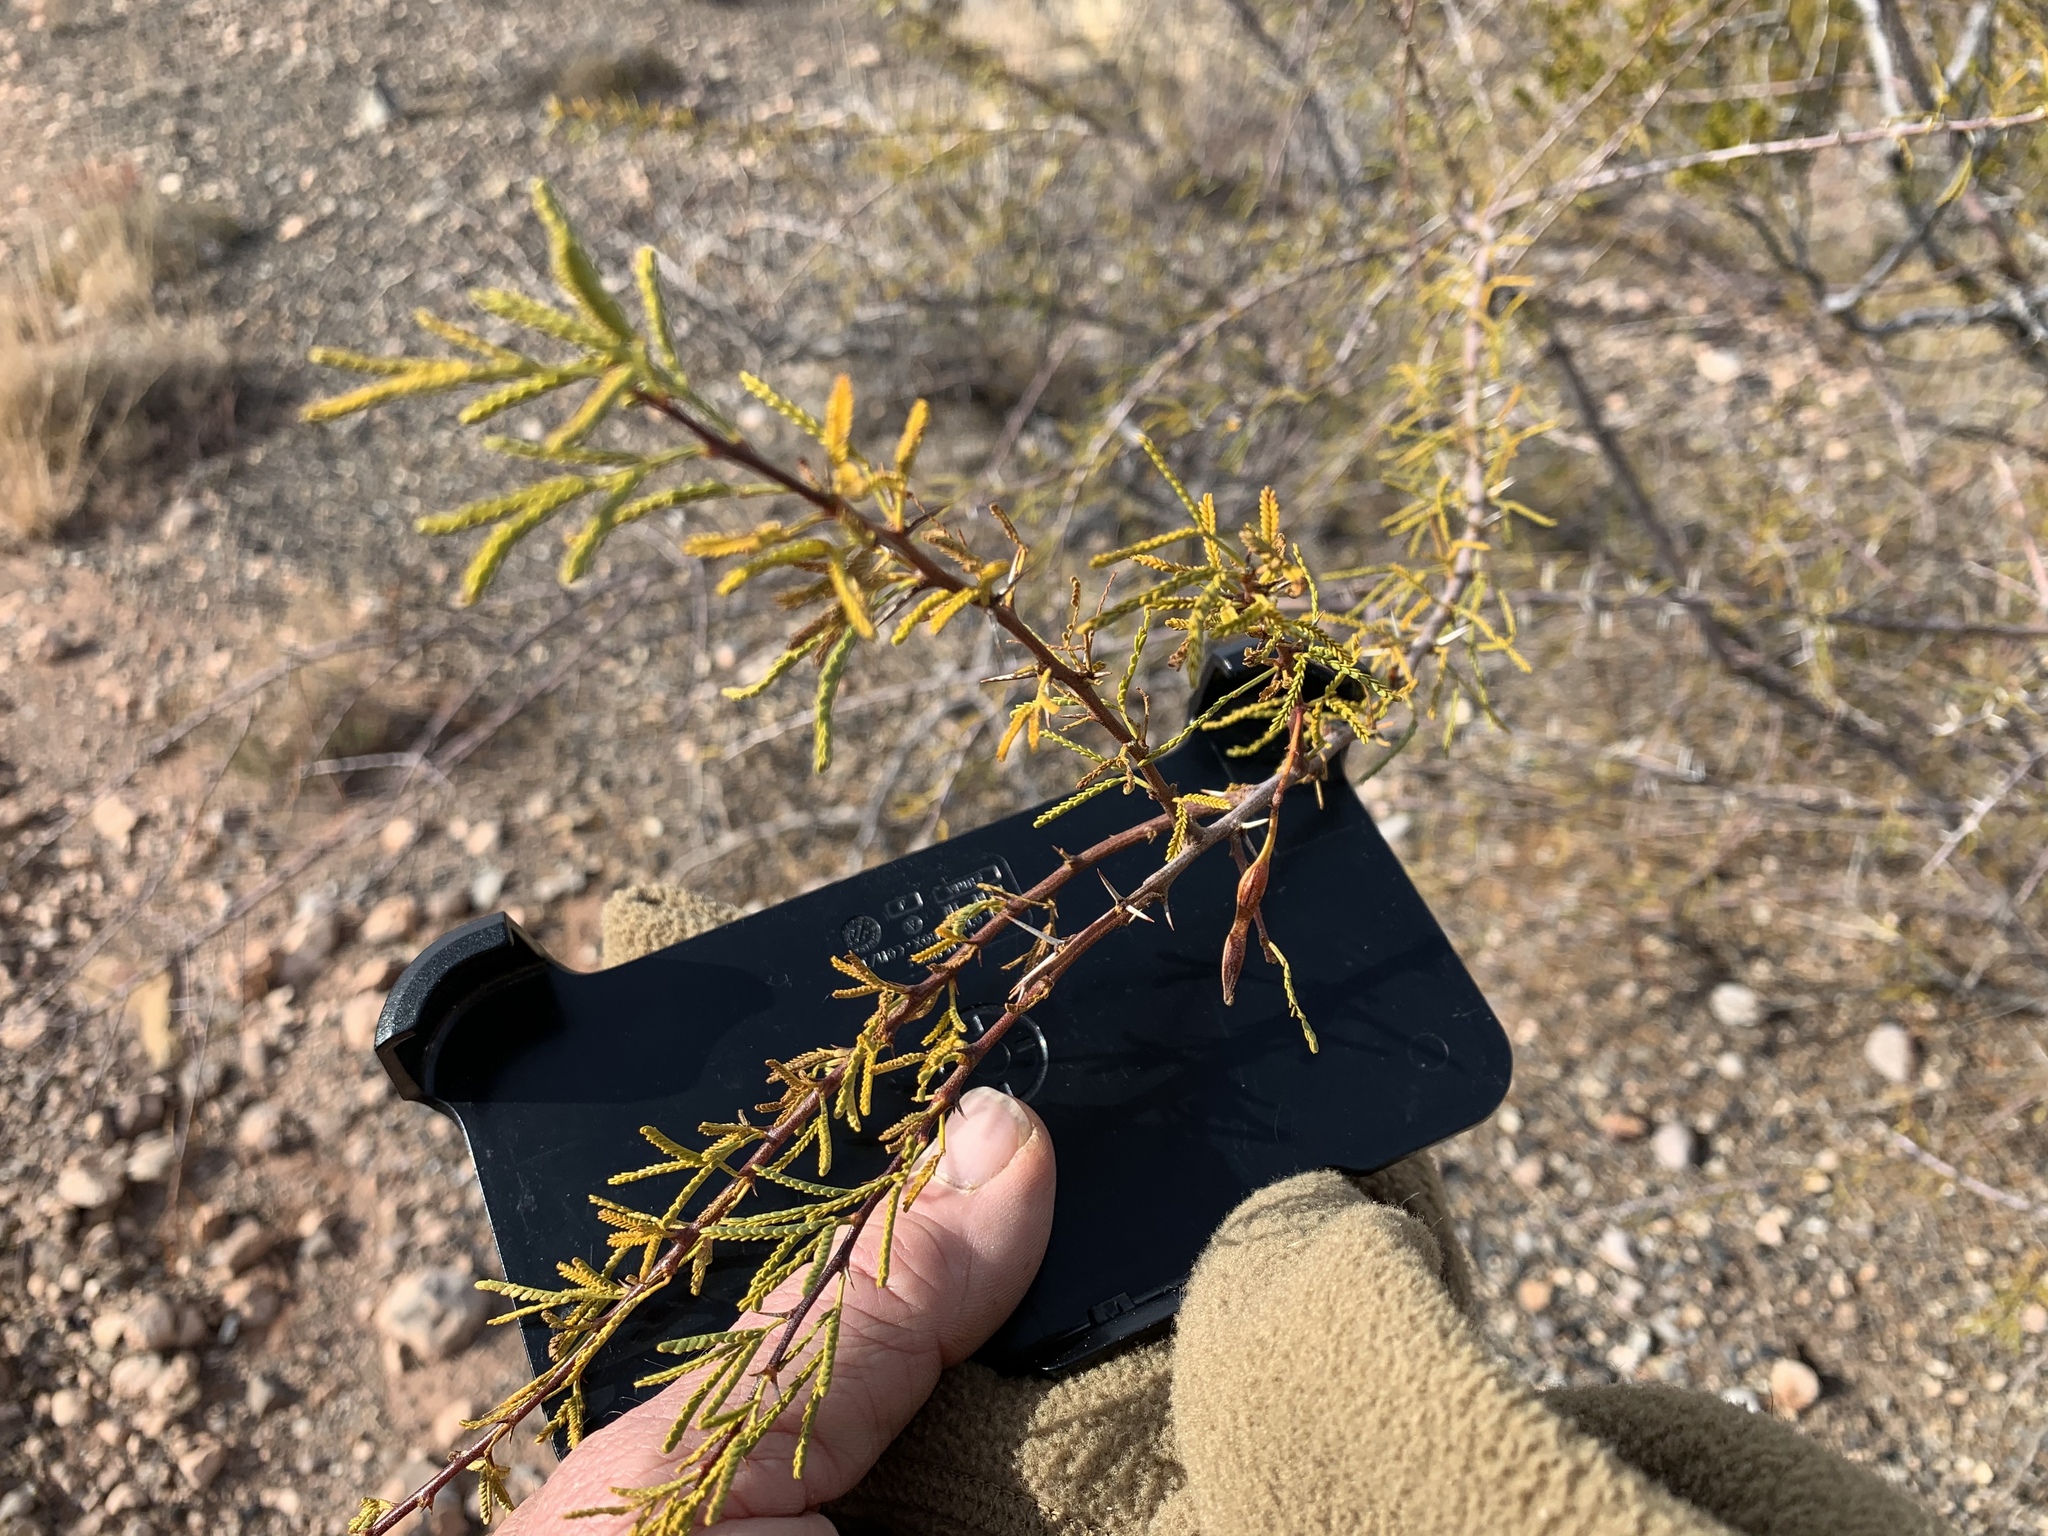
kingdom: Plantae
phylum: Tracheophyta
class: Magnoliopsida
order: Fabales
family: Fabaceae
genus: Vachellia
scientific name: Vachellia constricta
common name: Mescat acacia
